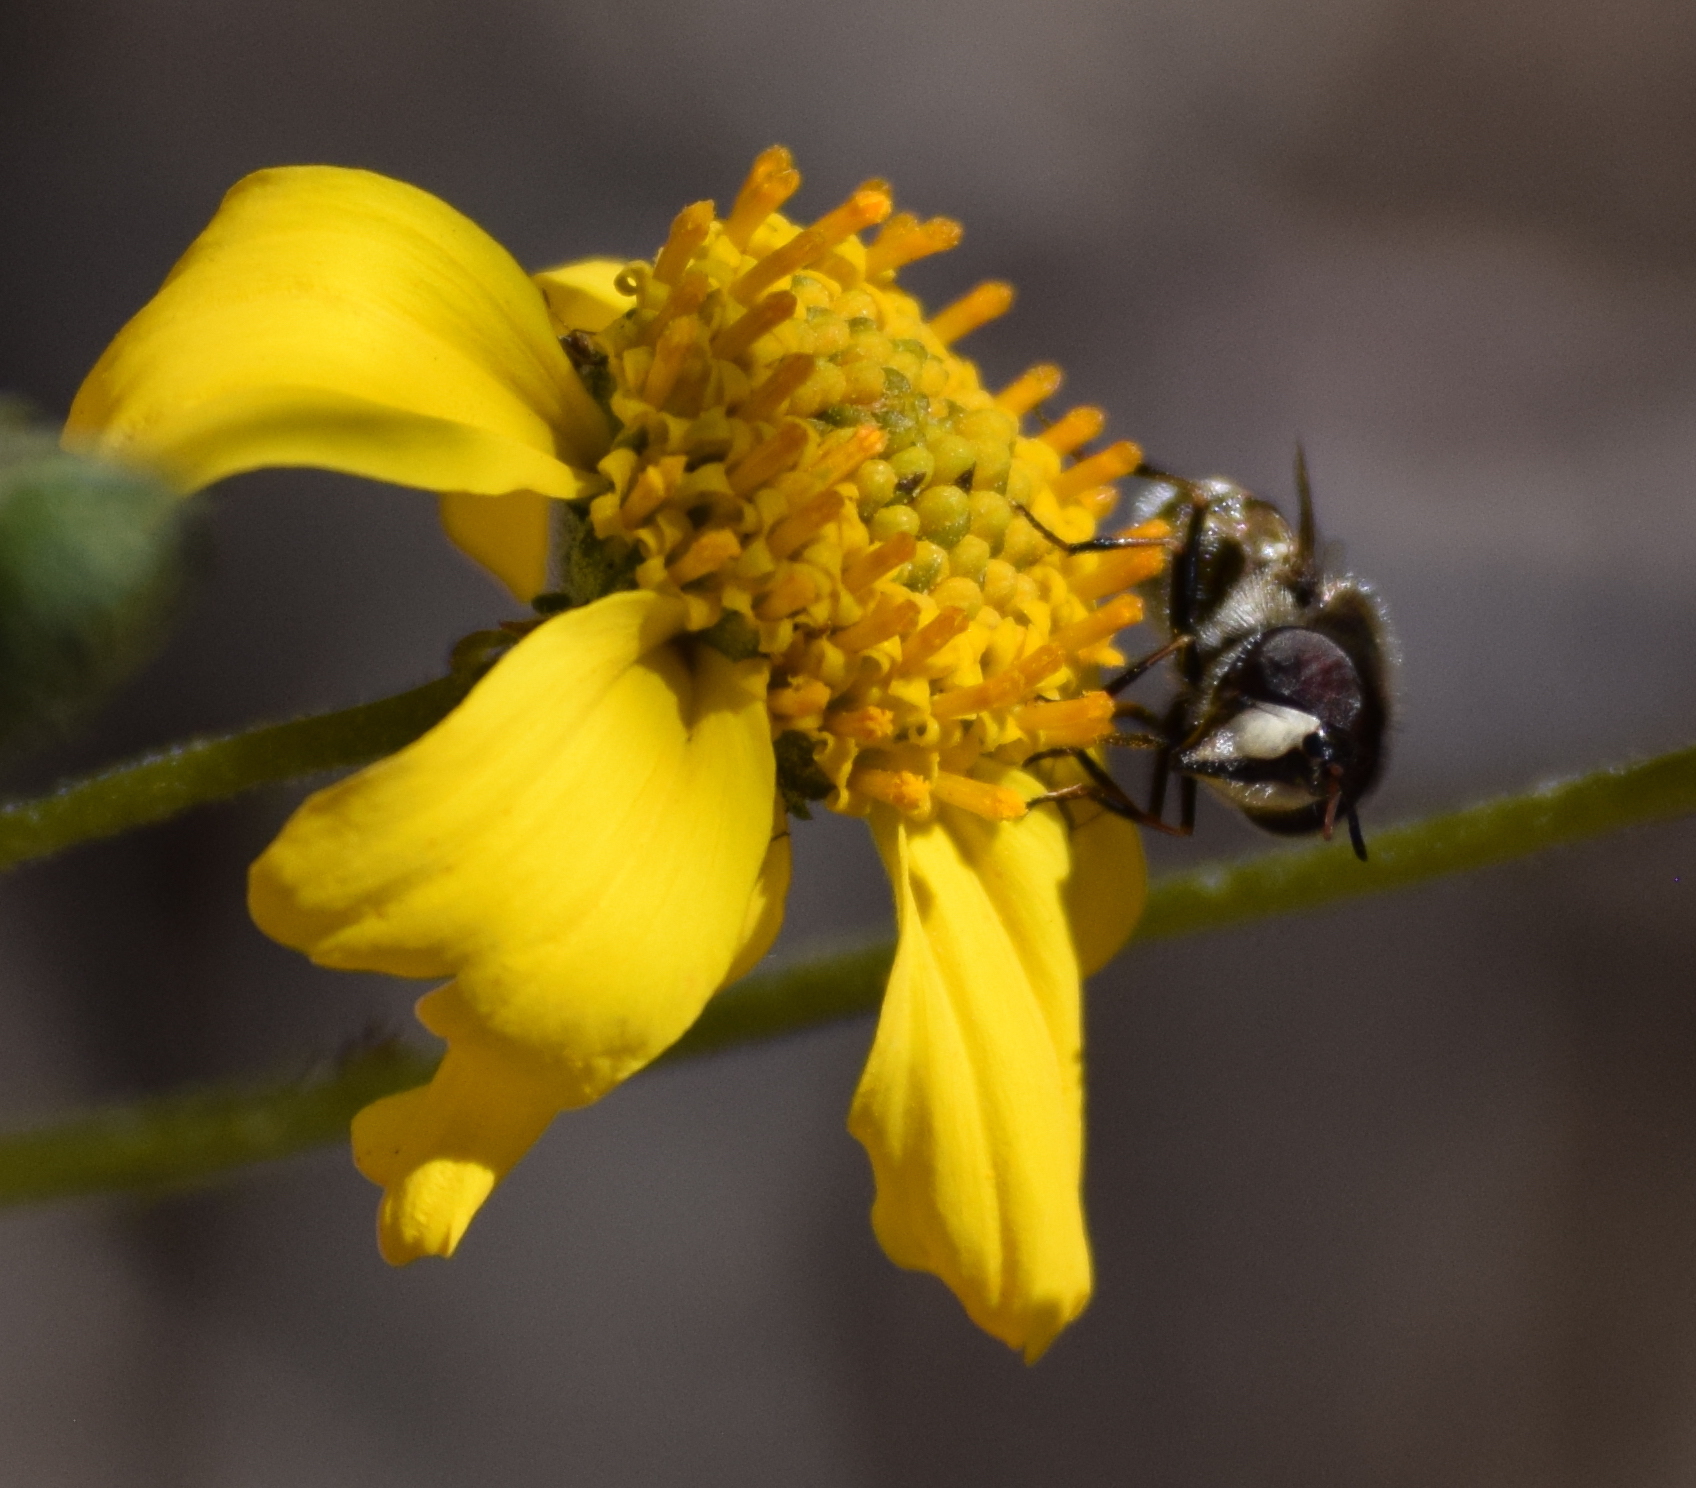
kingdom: Animalia
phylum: Arthropoda
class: Insecta
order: Diptera
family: Syrphidae
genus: Copestylum
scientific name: Copestylum
